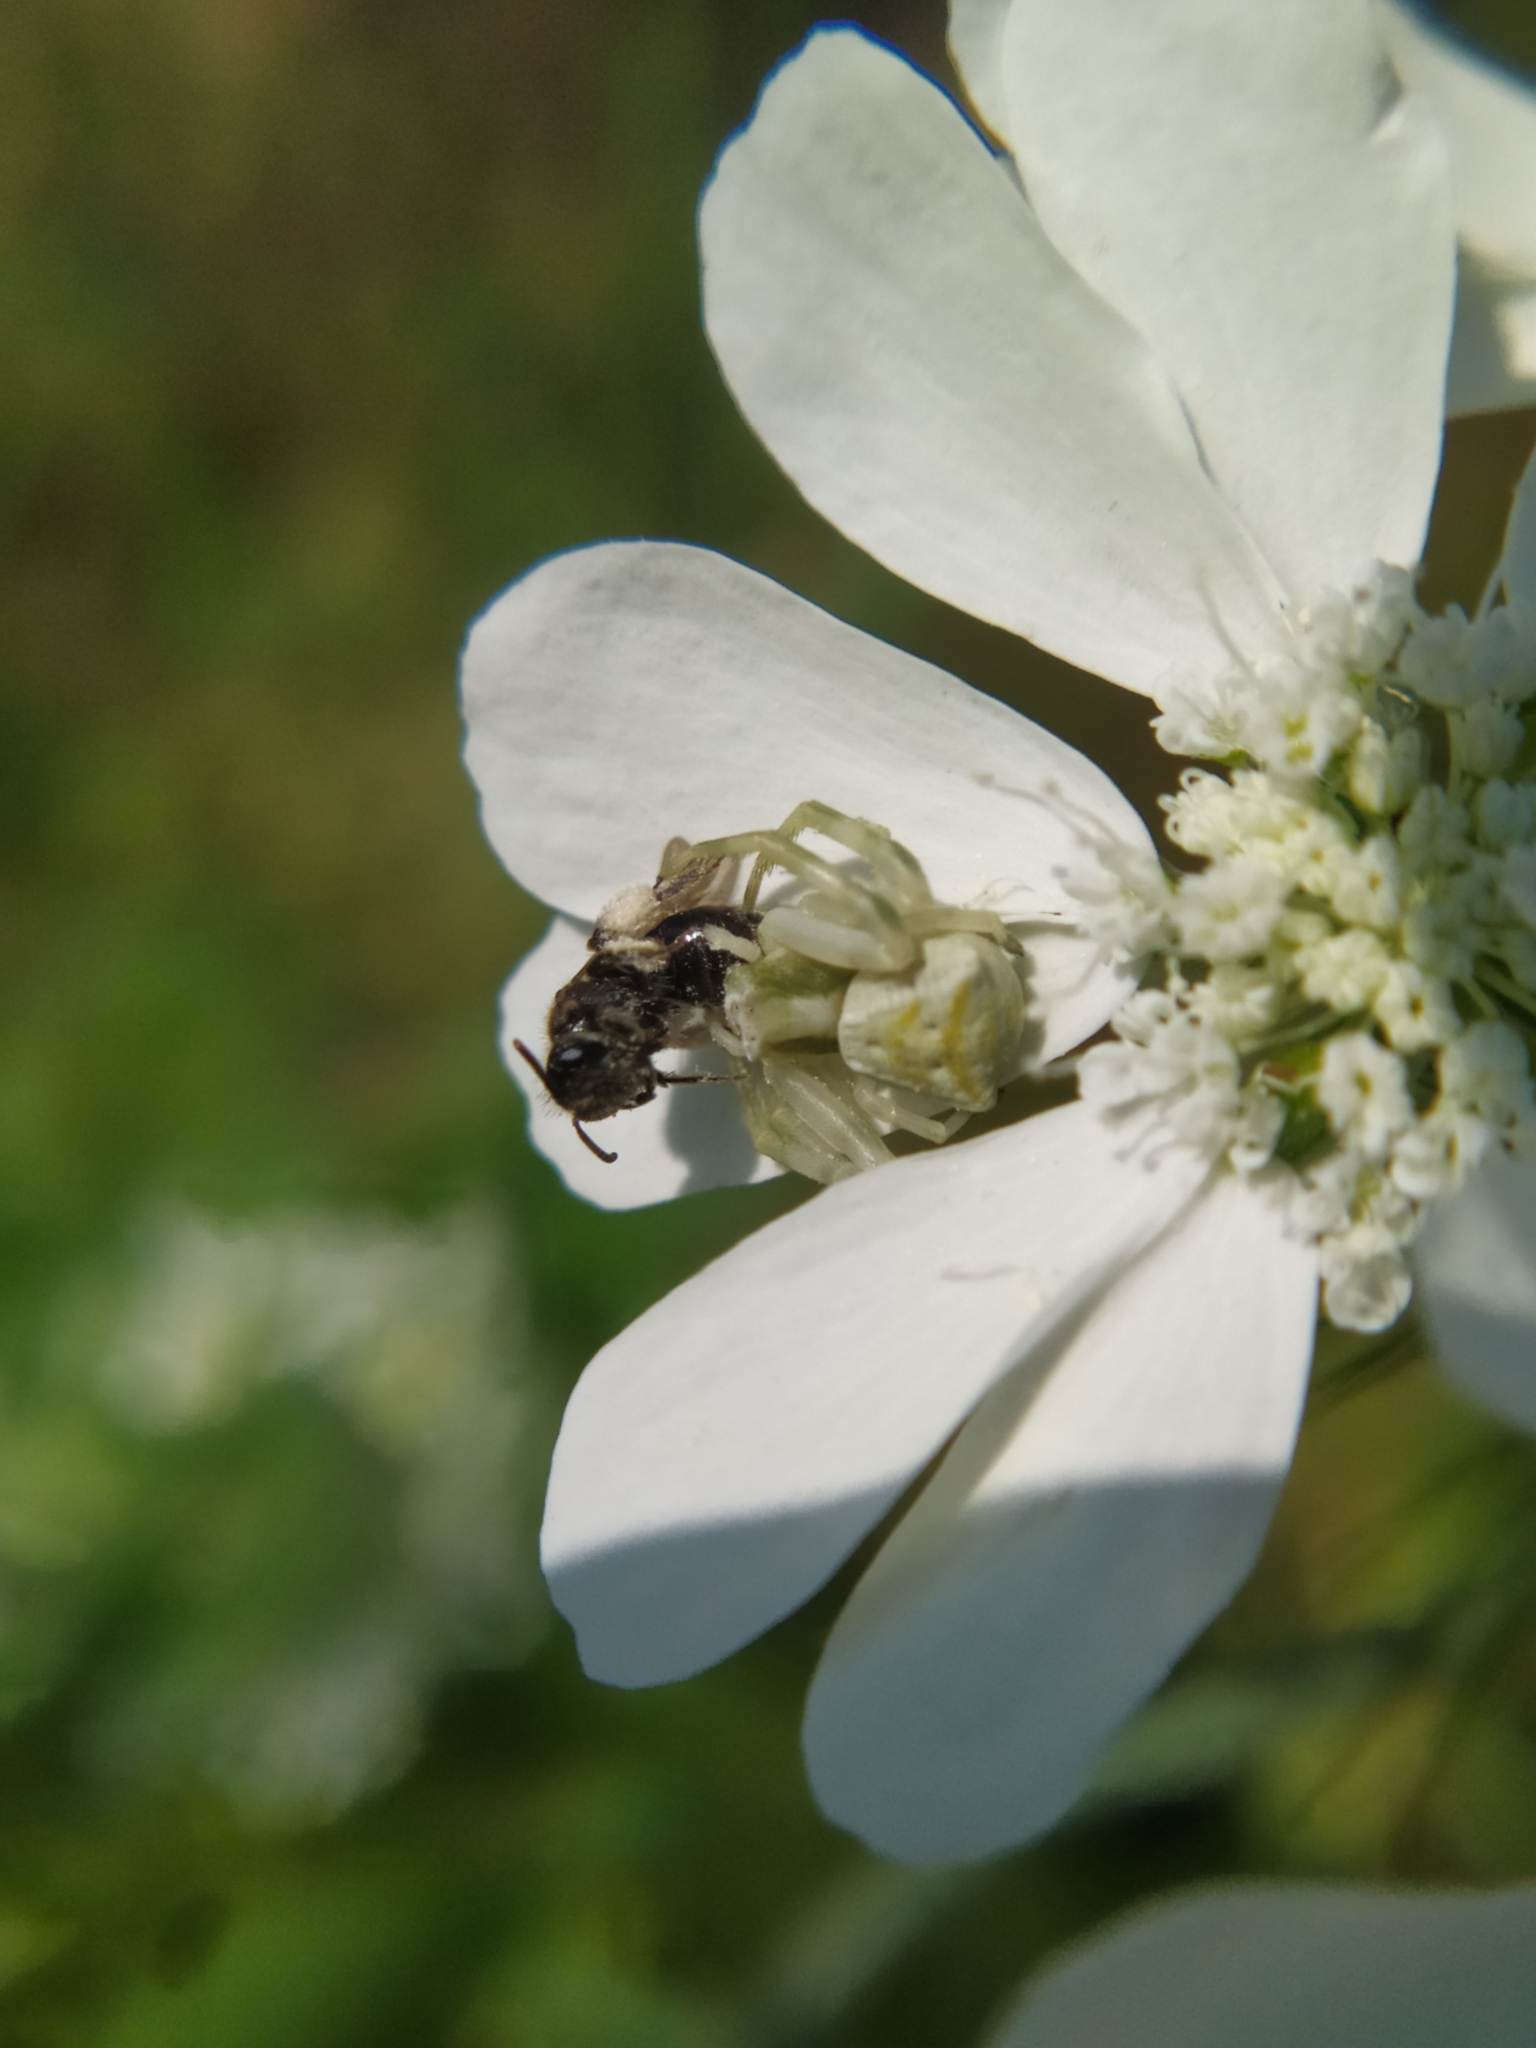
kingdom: Animalia
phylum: Arthropoda
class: Arachnida
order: Araneae
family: Thomisidae
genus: Thomisus
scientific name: Thomisus onustus
